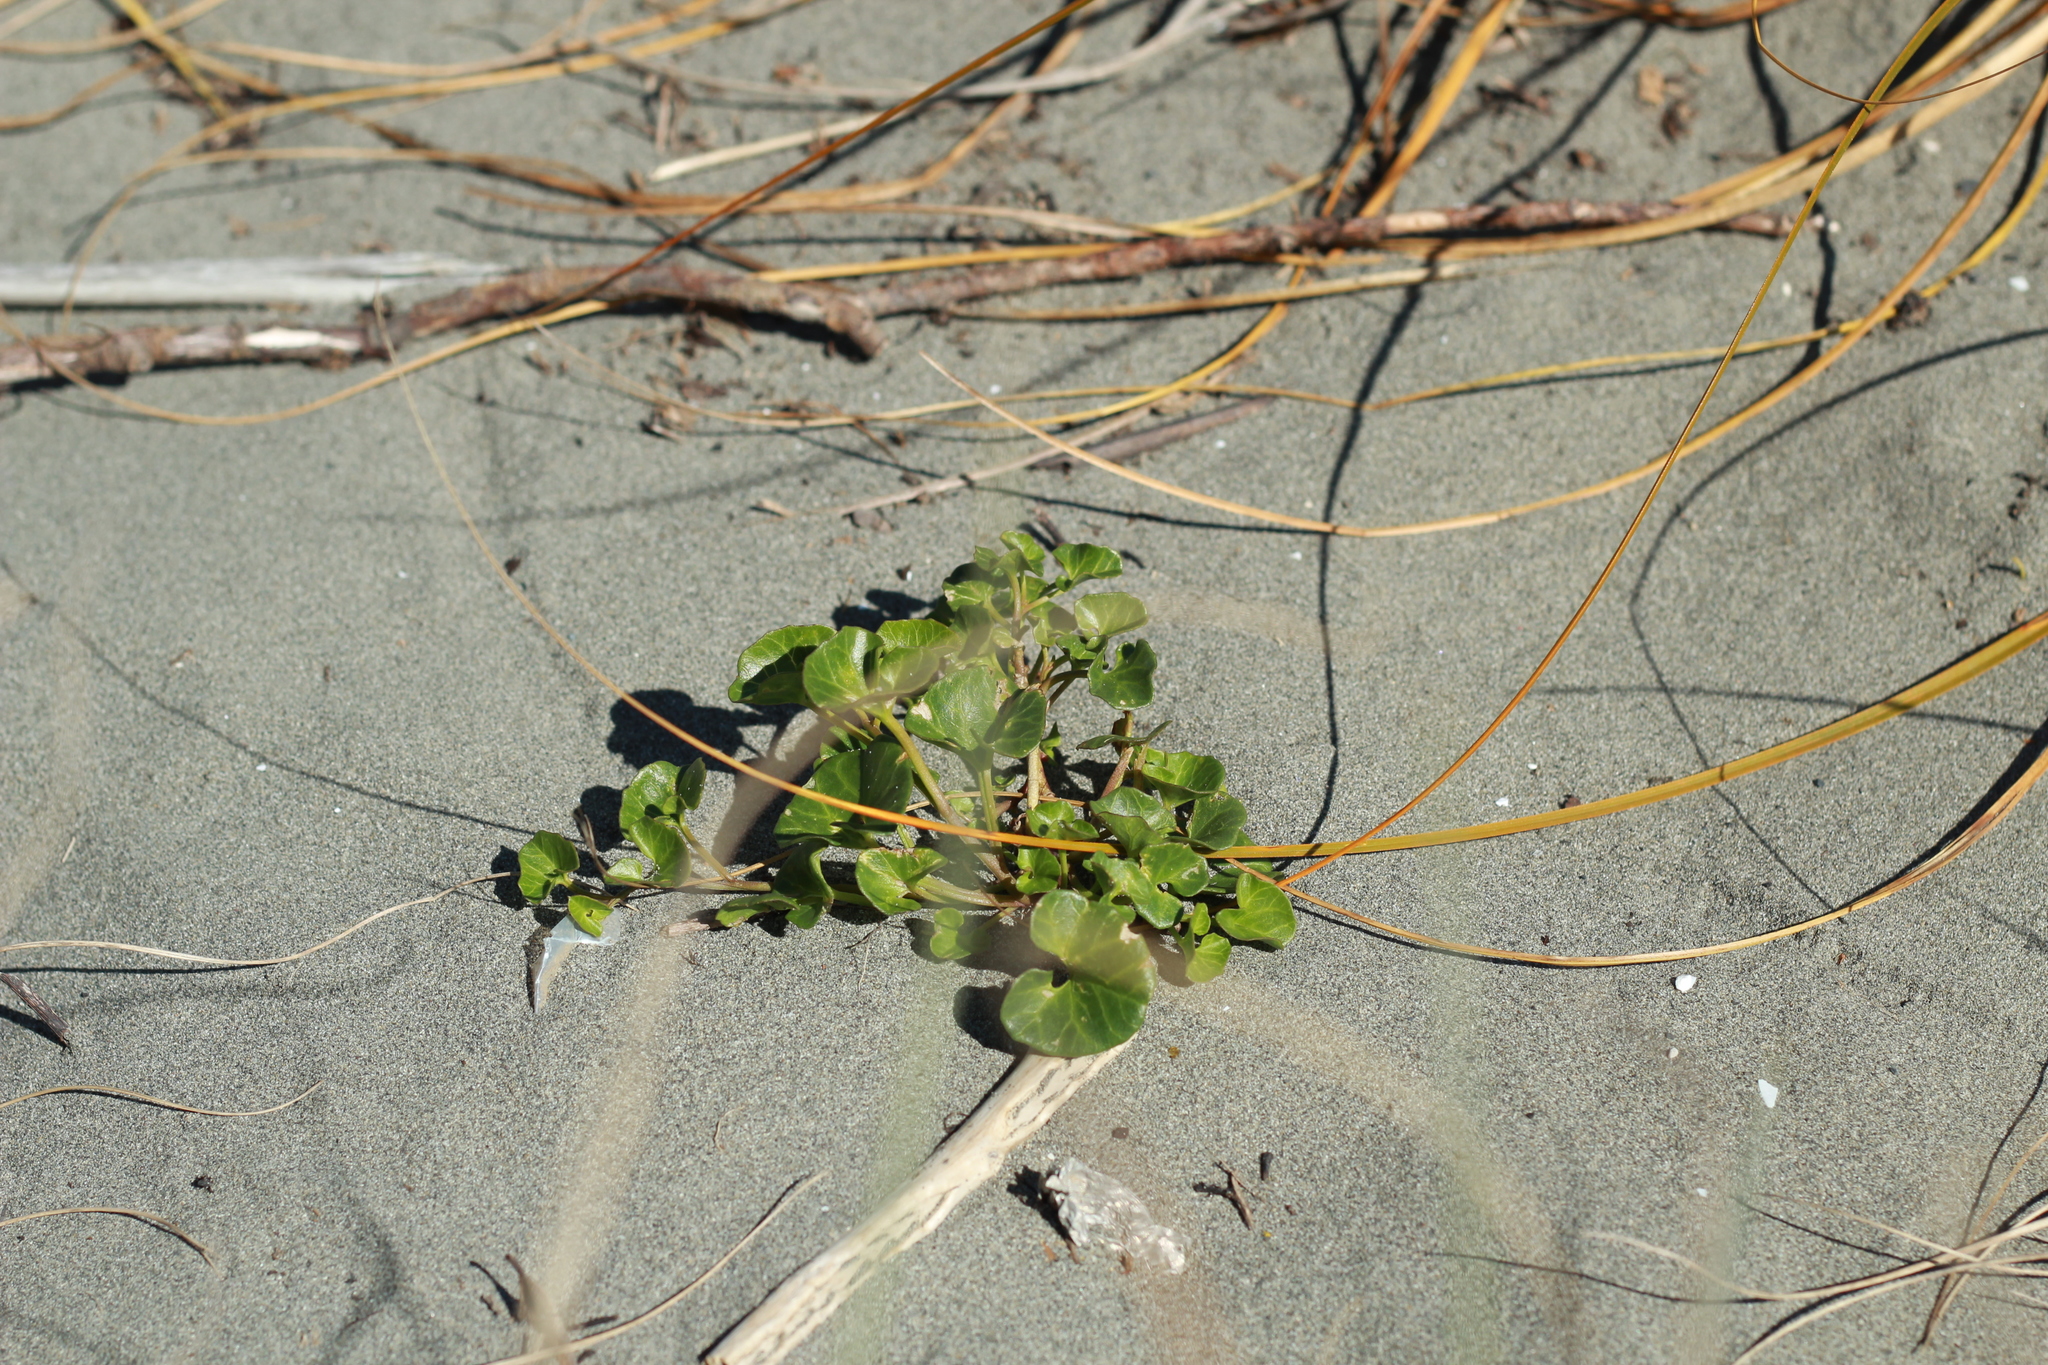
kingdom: Plantae
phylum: Tracheophyta
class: Magnoliopsida
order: Solanales
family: Convolvulaceae
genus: Calystegia
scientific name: Calystegia soldanella
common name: Sea bindweed
